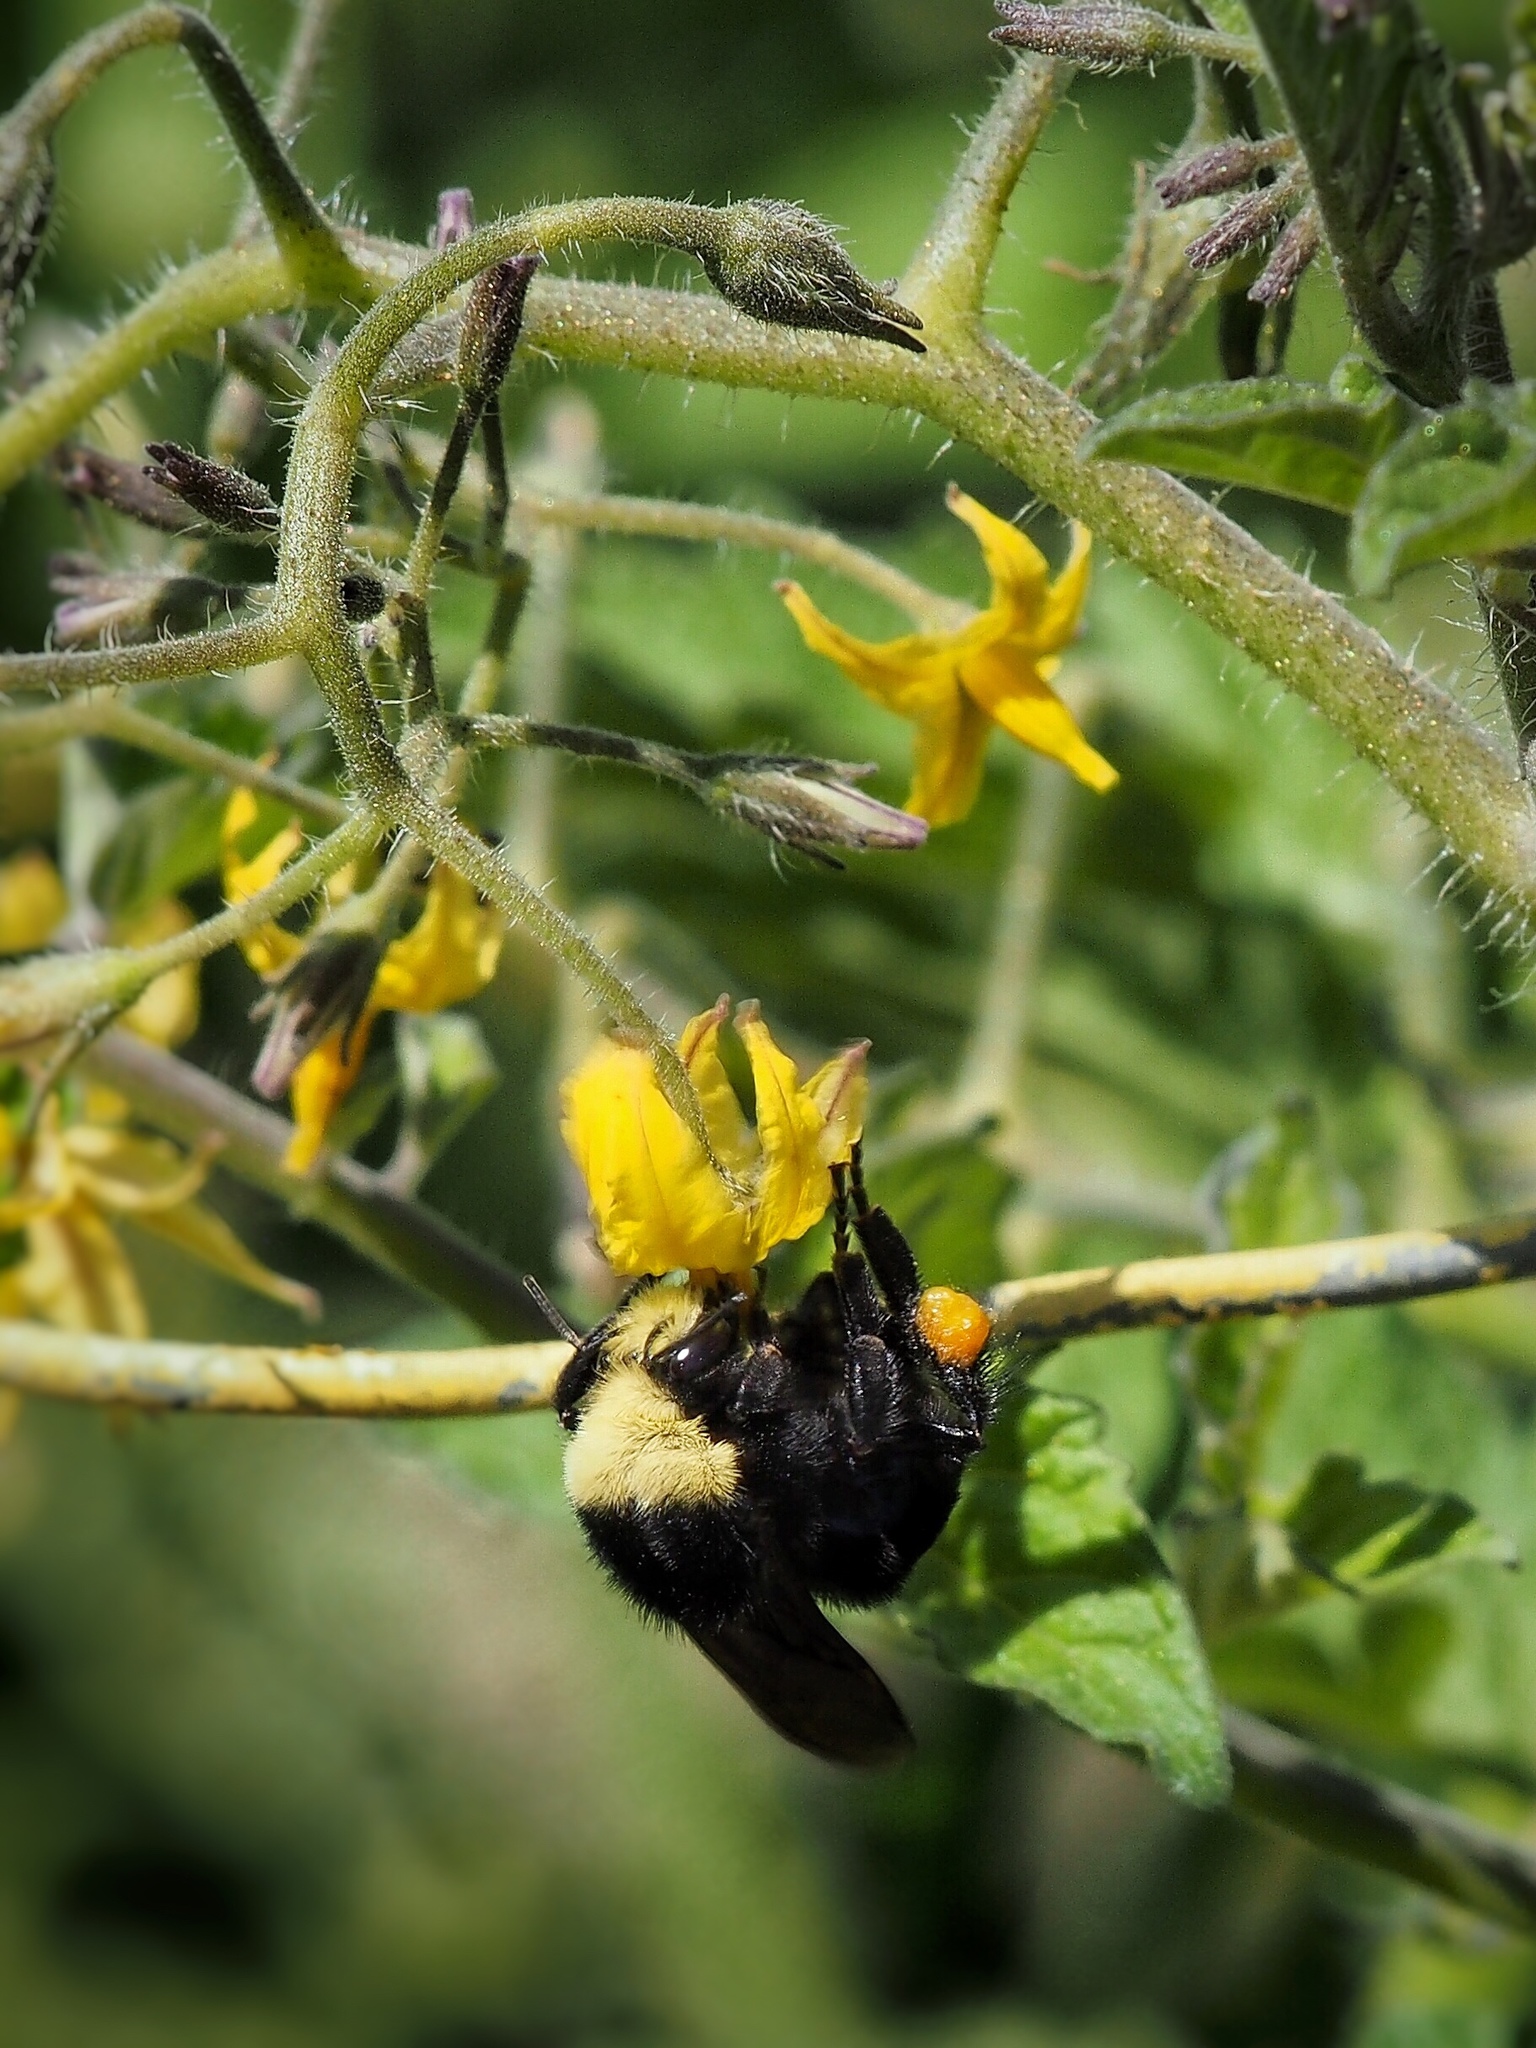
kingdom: Animalia
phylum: Arthropoda
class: Insecta
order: Hymenoptera
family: Apidae
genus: Bombus
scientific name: Bombus vosnesenskii
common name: Vosnesensky bumble bee
